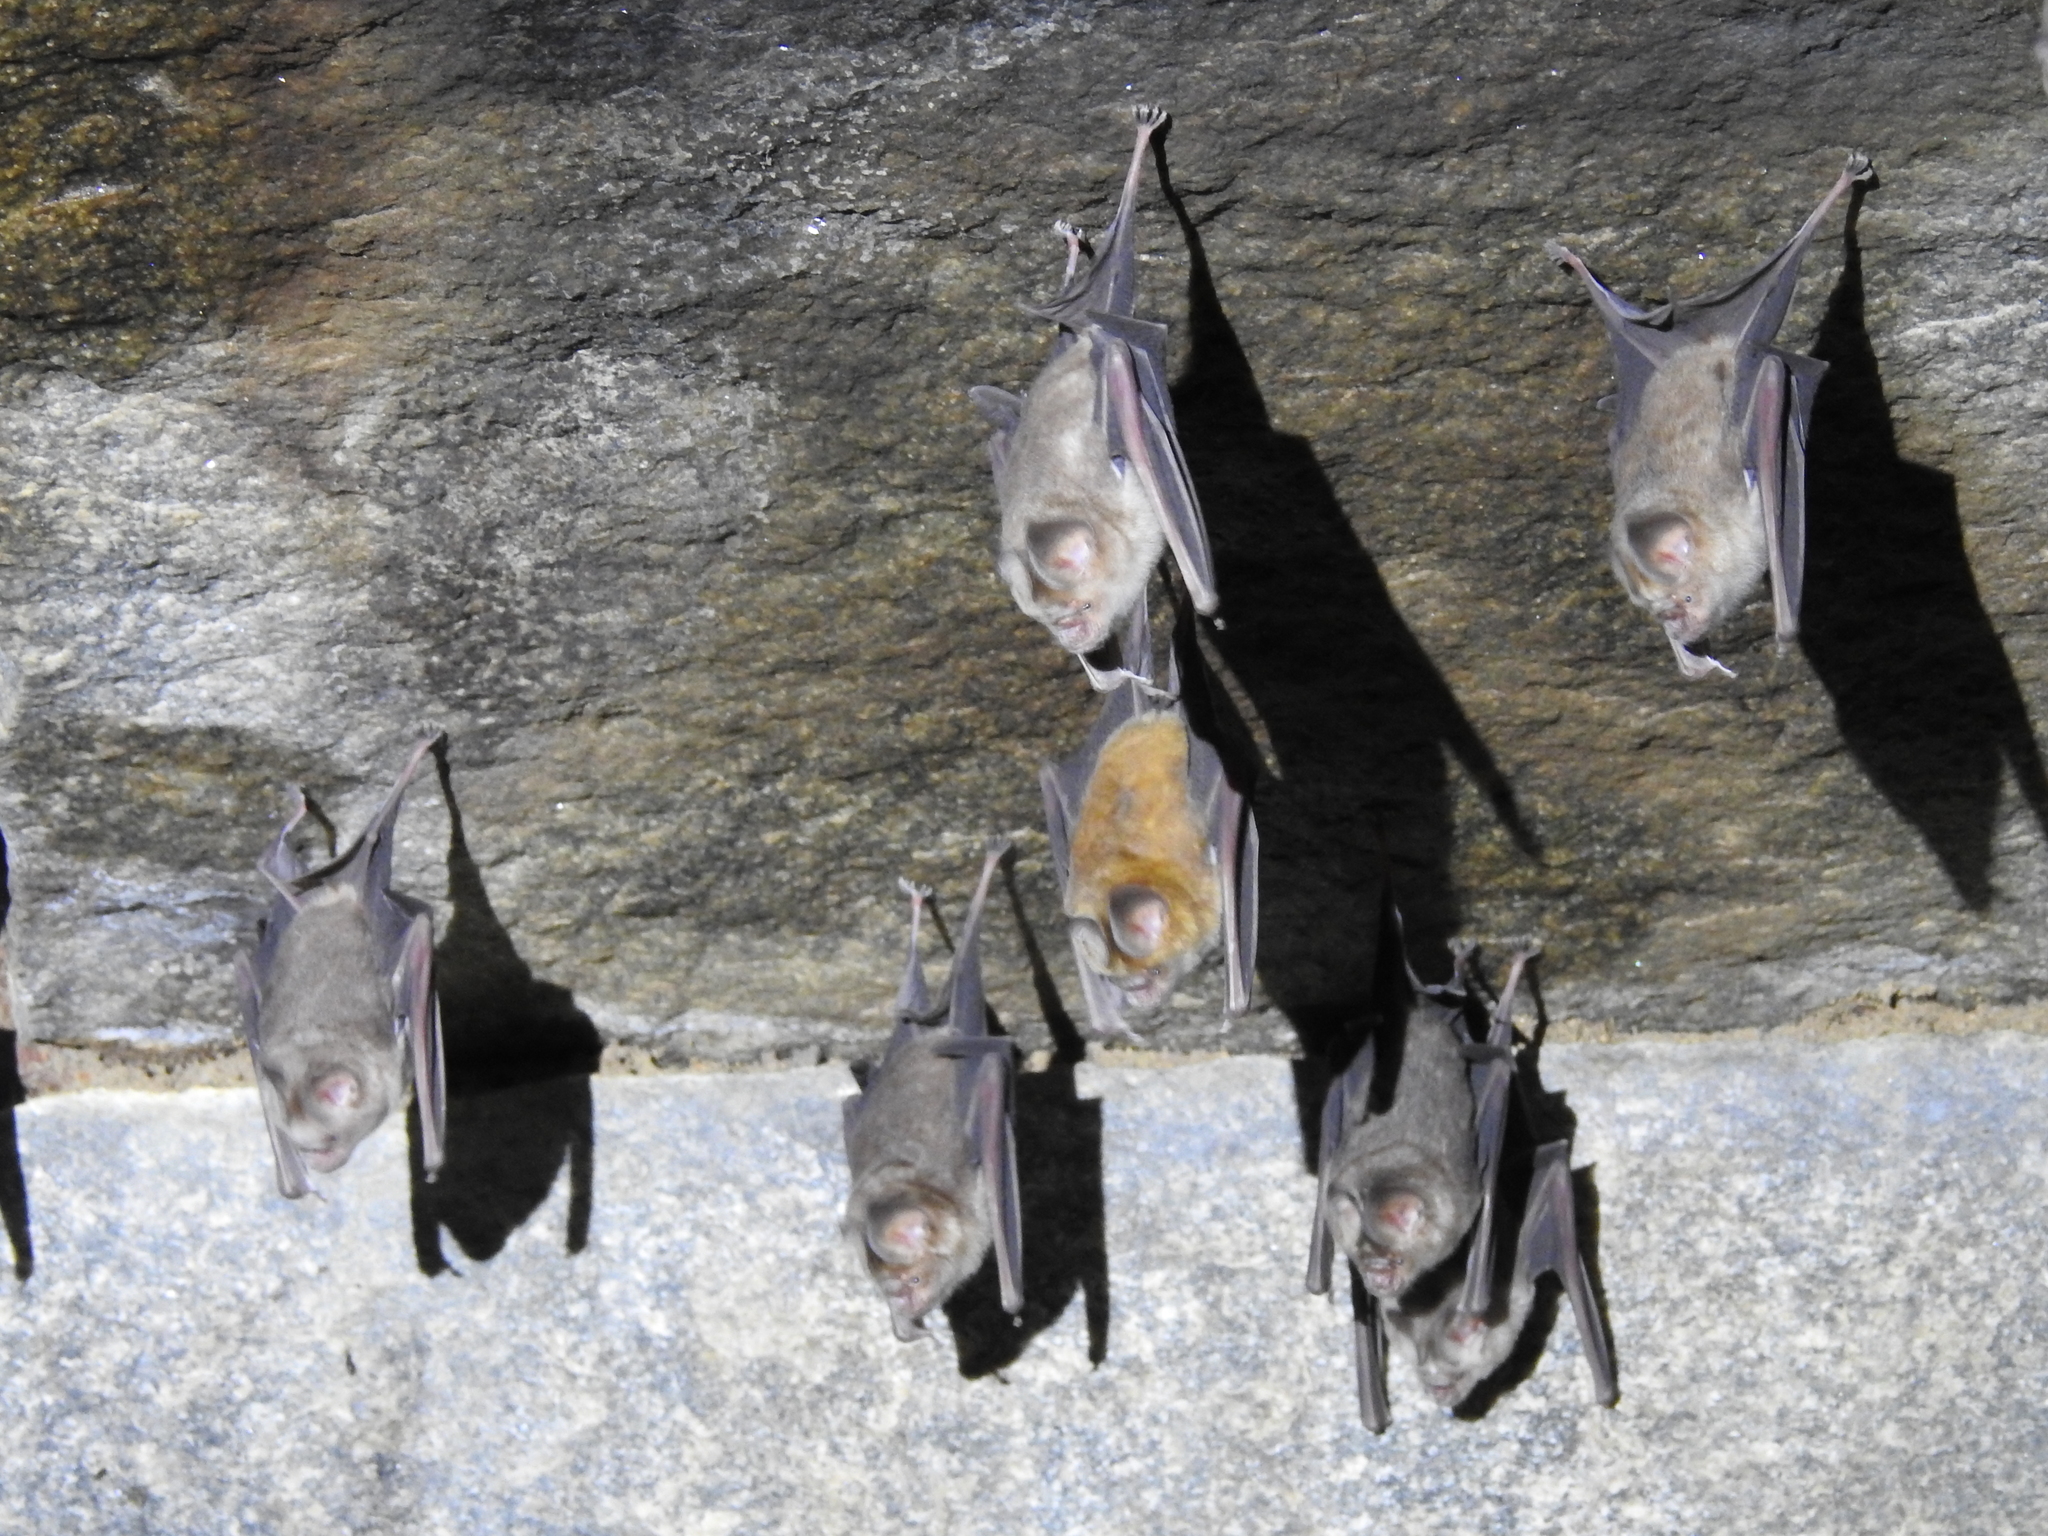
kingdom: Animalia
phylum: Chordata
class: Mammalia
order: Chiroptera
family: Hipposideridae
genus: Hipposideros
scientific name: Hipposideros speoris
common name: Schneider's roundleaf bat
